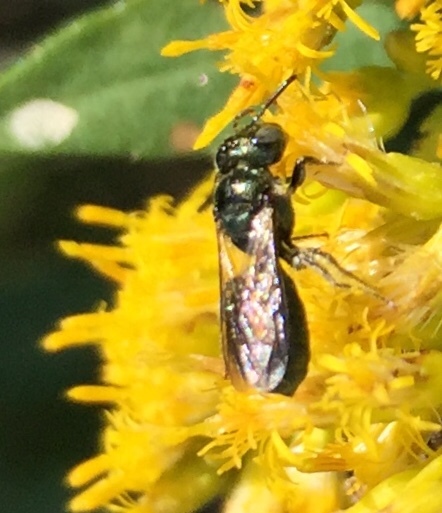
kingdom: Animalia
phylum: Arthropoda
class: Insecta
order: Hymenoptera
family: Apidae
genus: Zadontomerus
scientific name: Zadontomerus
